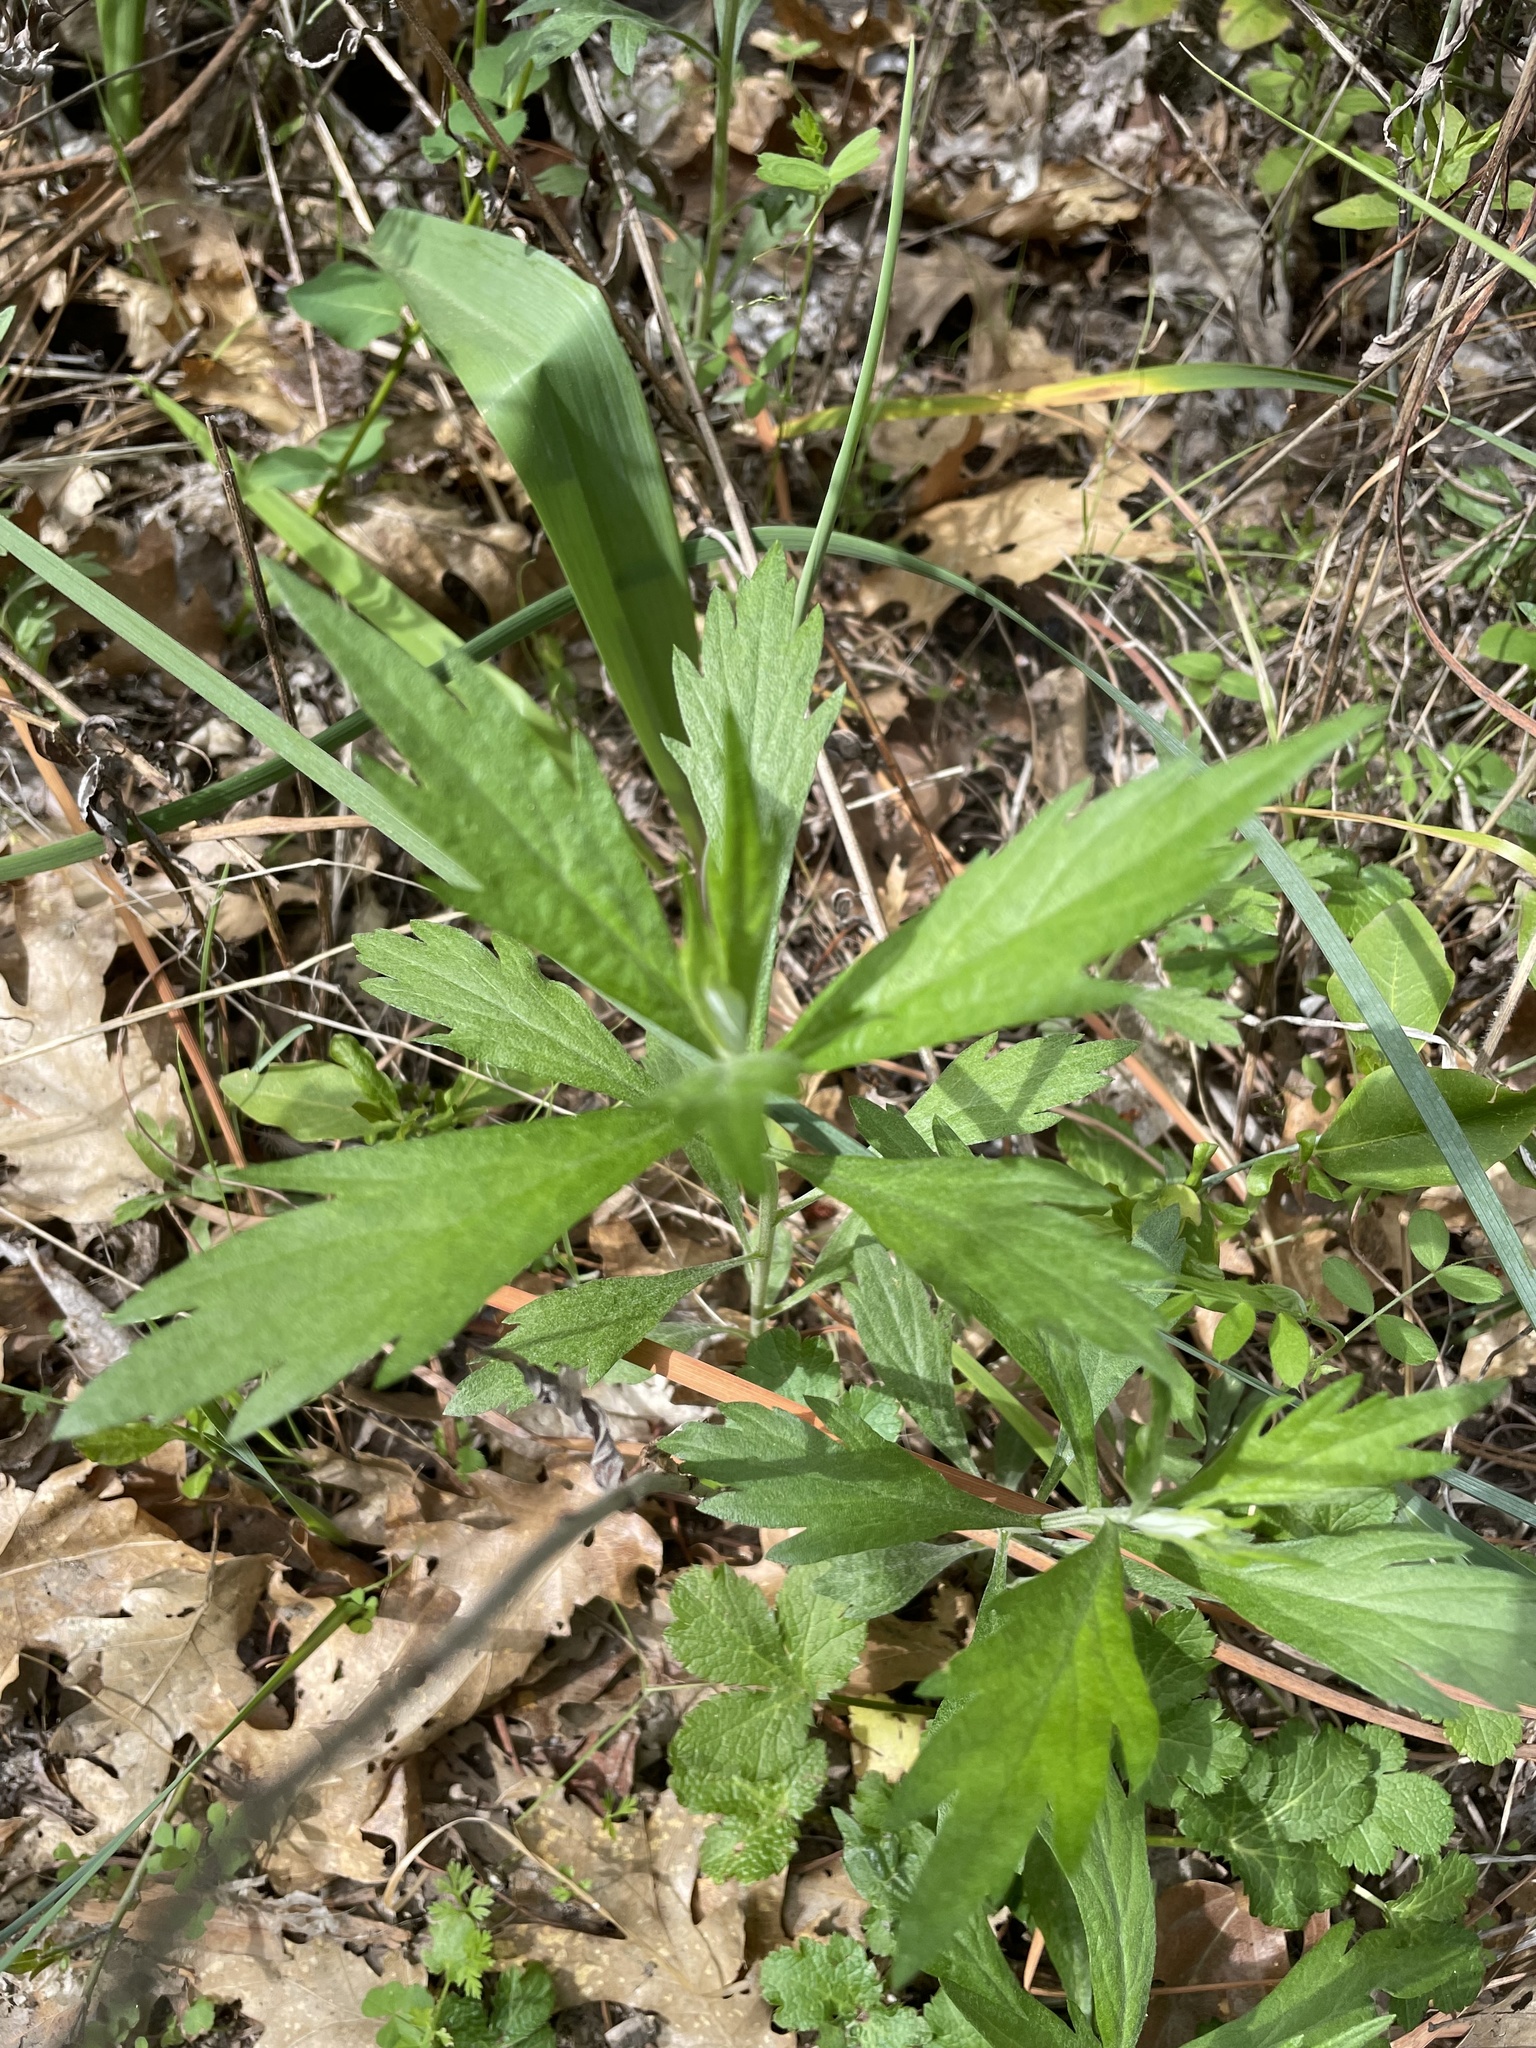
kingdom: Plantae
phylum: Tracheophyta
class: Magnoliopsida
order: Asterales
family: Asteraceae
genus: Artemisia
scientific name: Artemisia douglasiana
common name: Northwest mugwort
